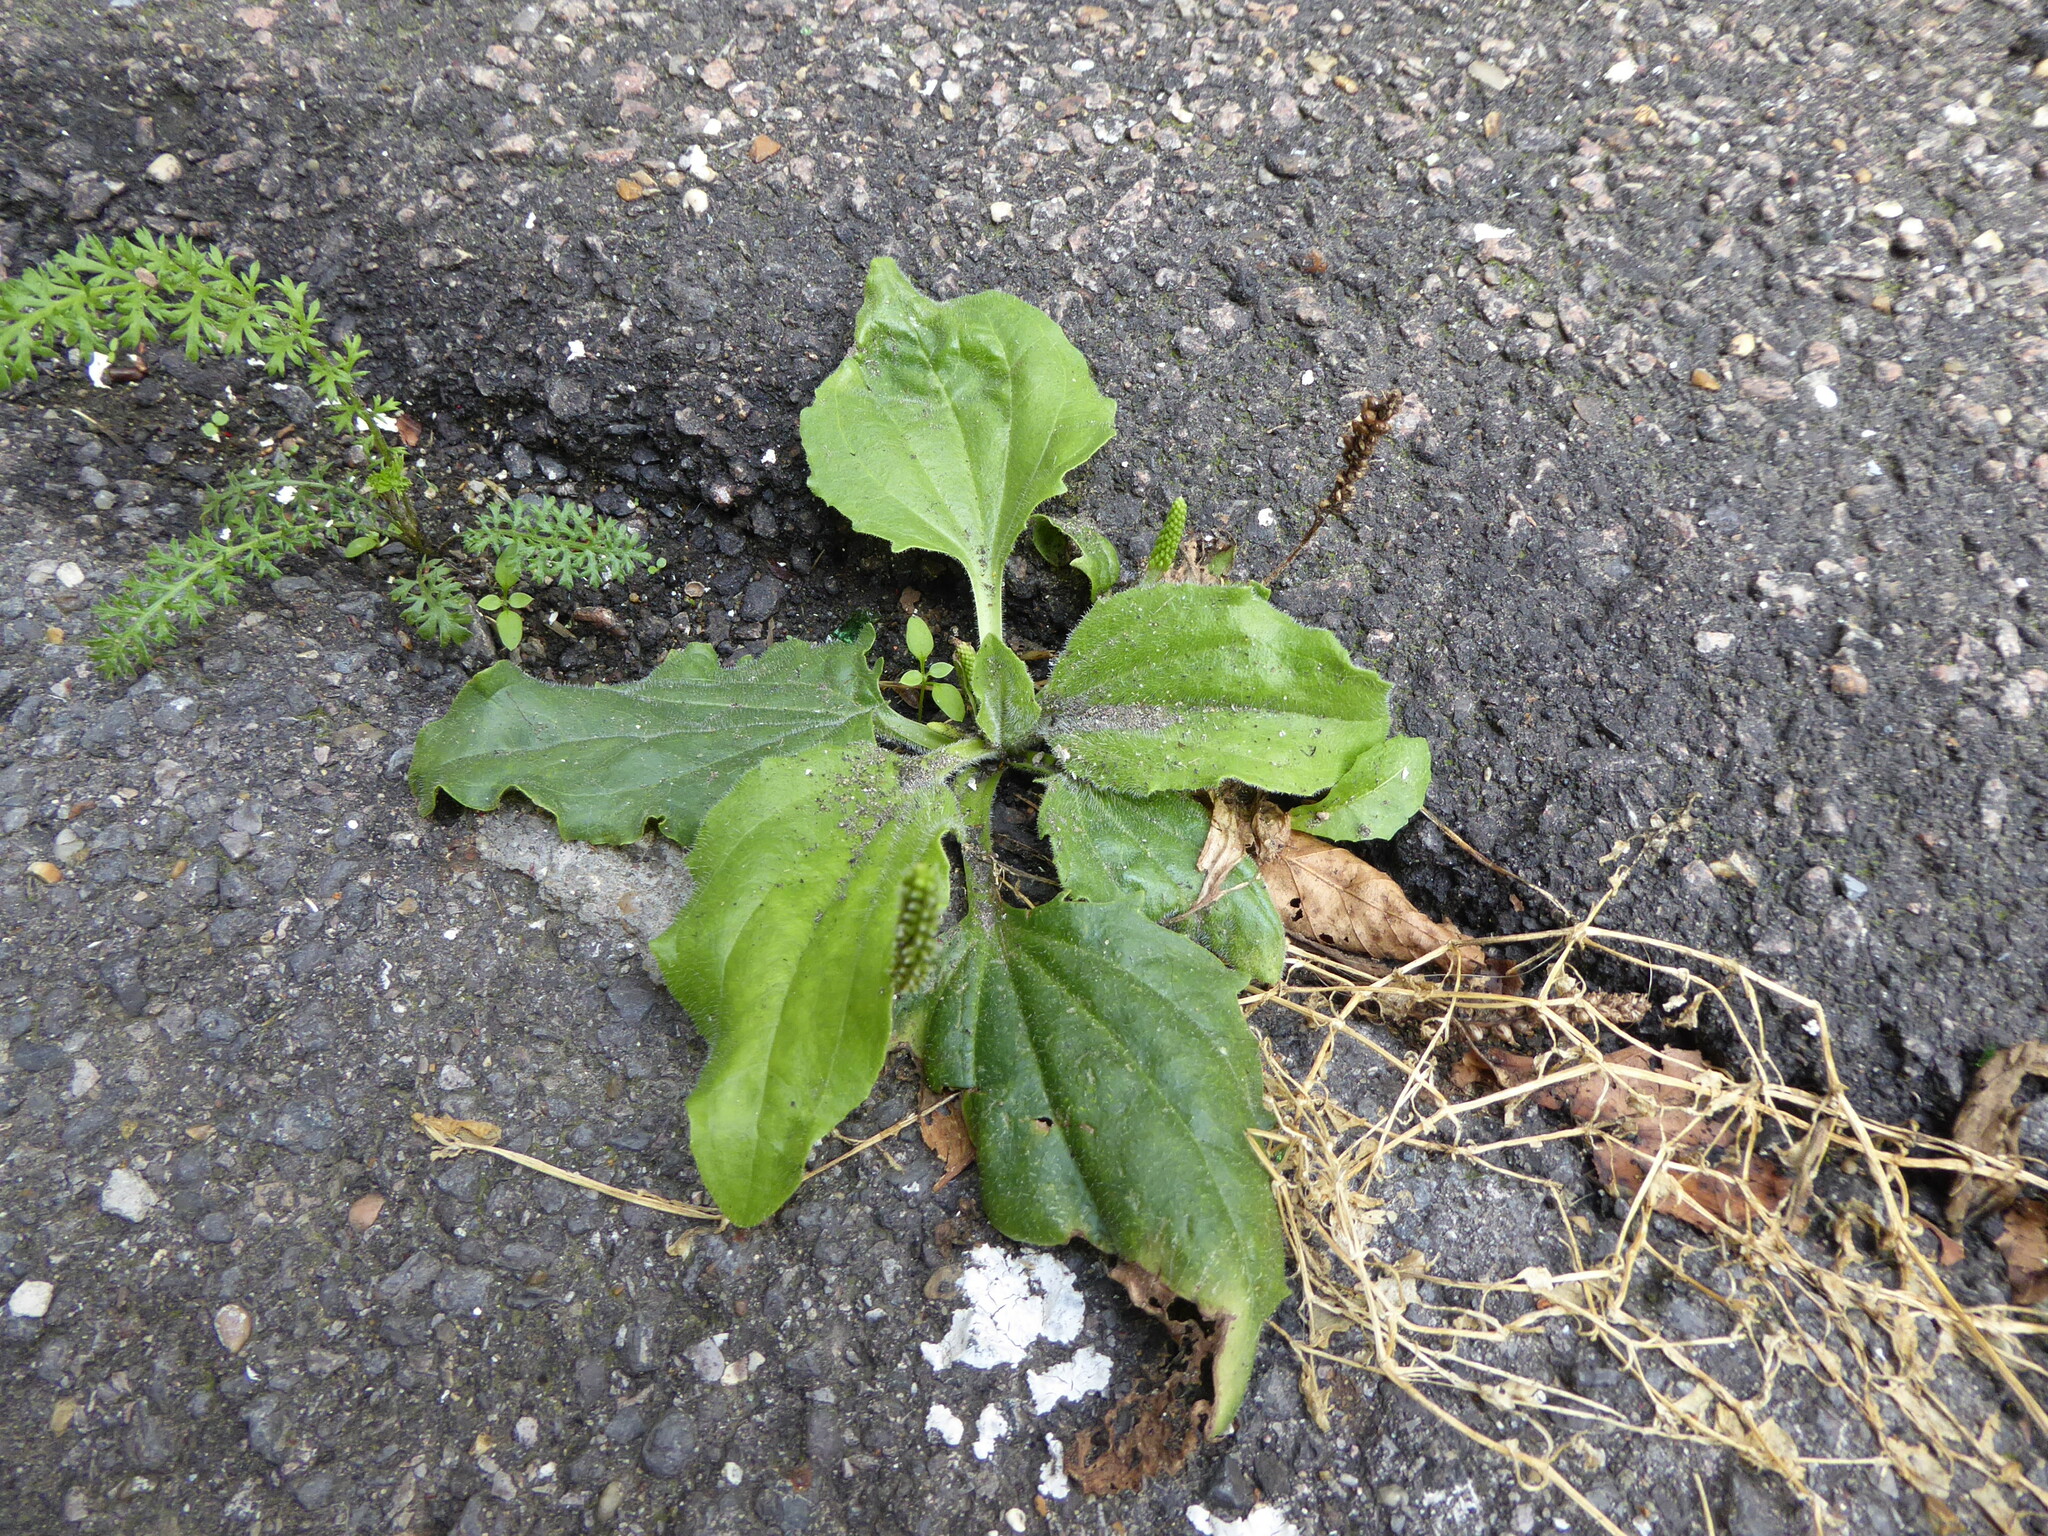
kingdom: Plantae
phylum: Tracheophyta
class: Magnoliopsida
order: Lamiales
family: Plantaginaceae
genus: Plantago
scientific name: Plantago major
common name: Common plantain
